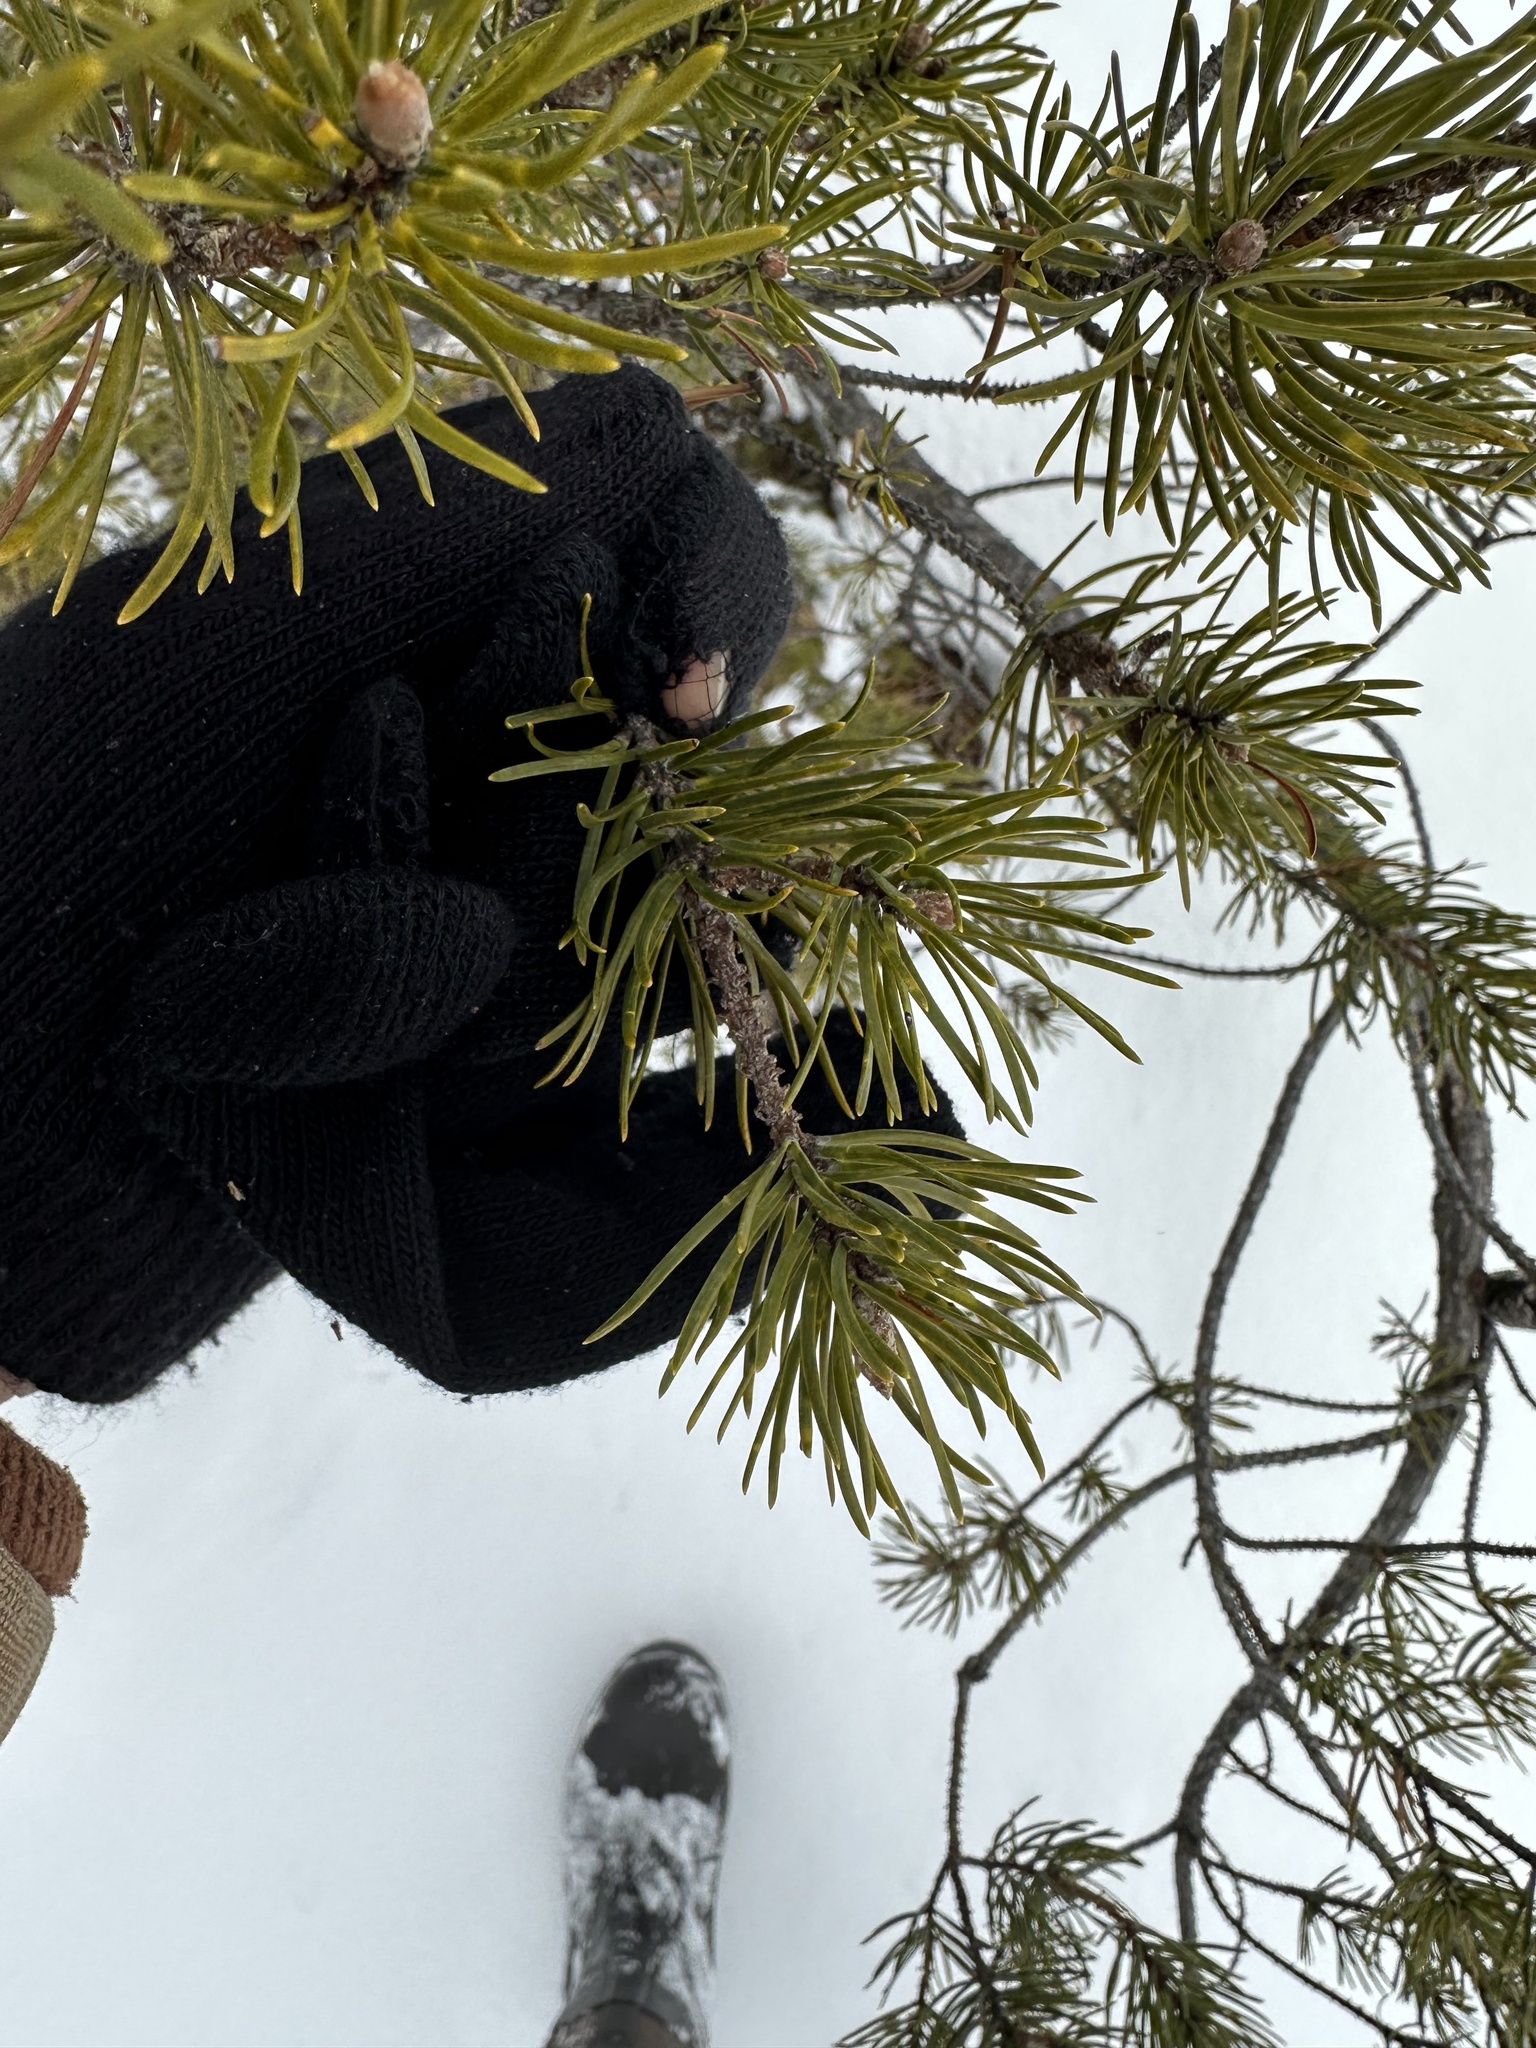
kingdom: Plantae
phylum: Tracheophyta
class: Pinopsida
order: Pinales
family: Pinaceae
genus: Pinus
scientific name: Pinus banksiana
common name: Jack pine
